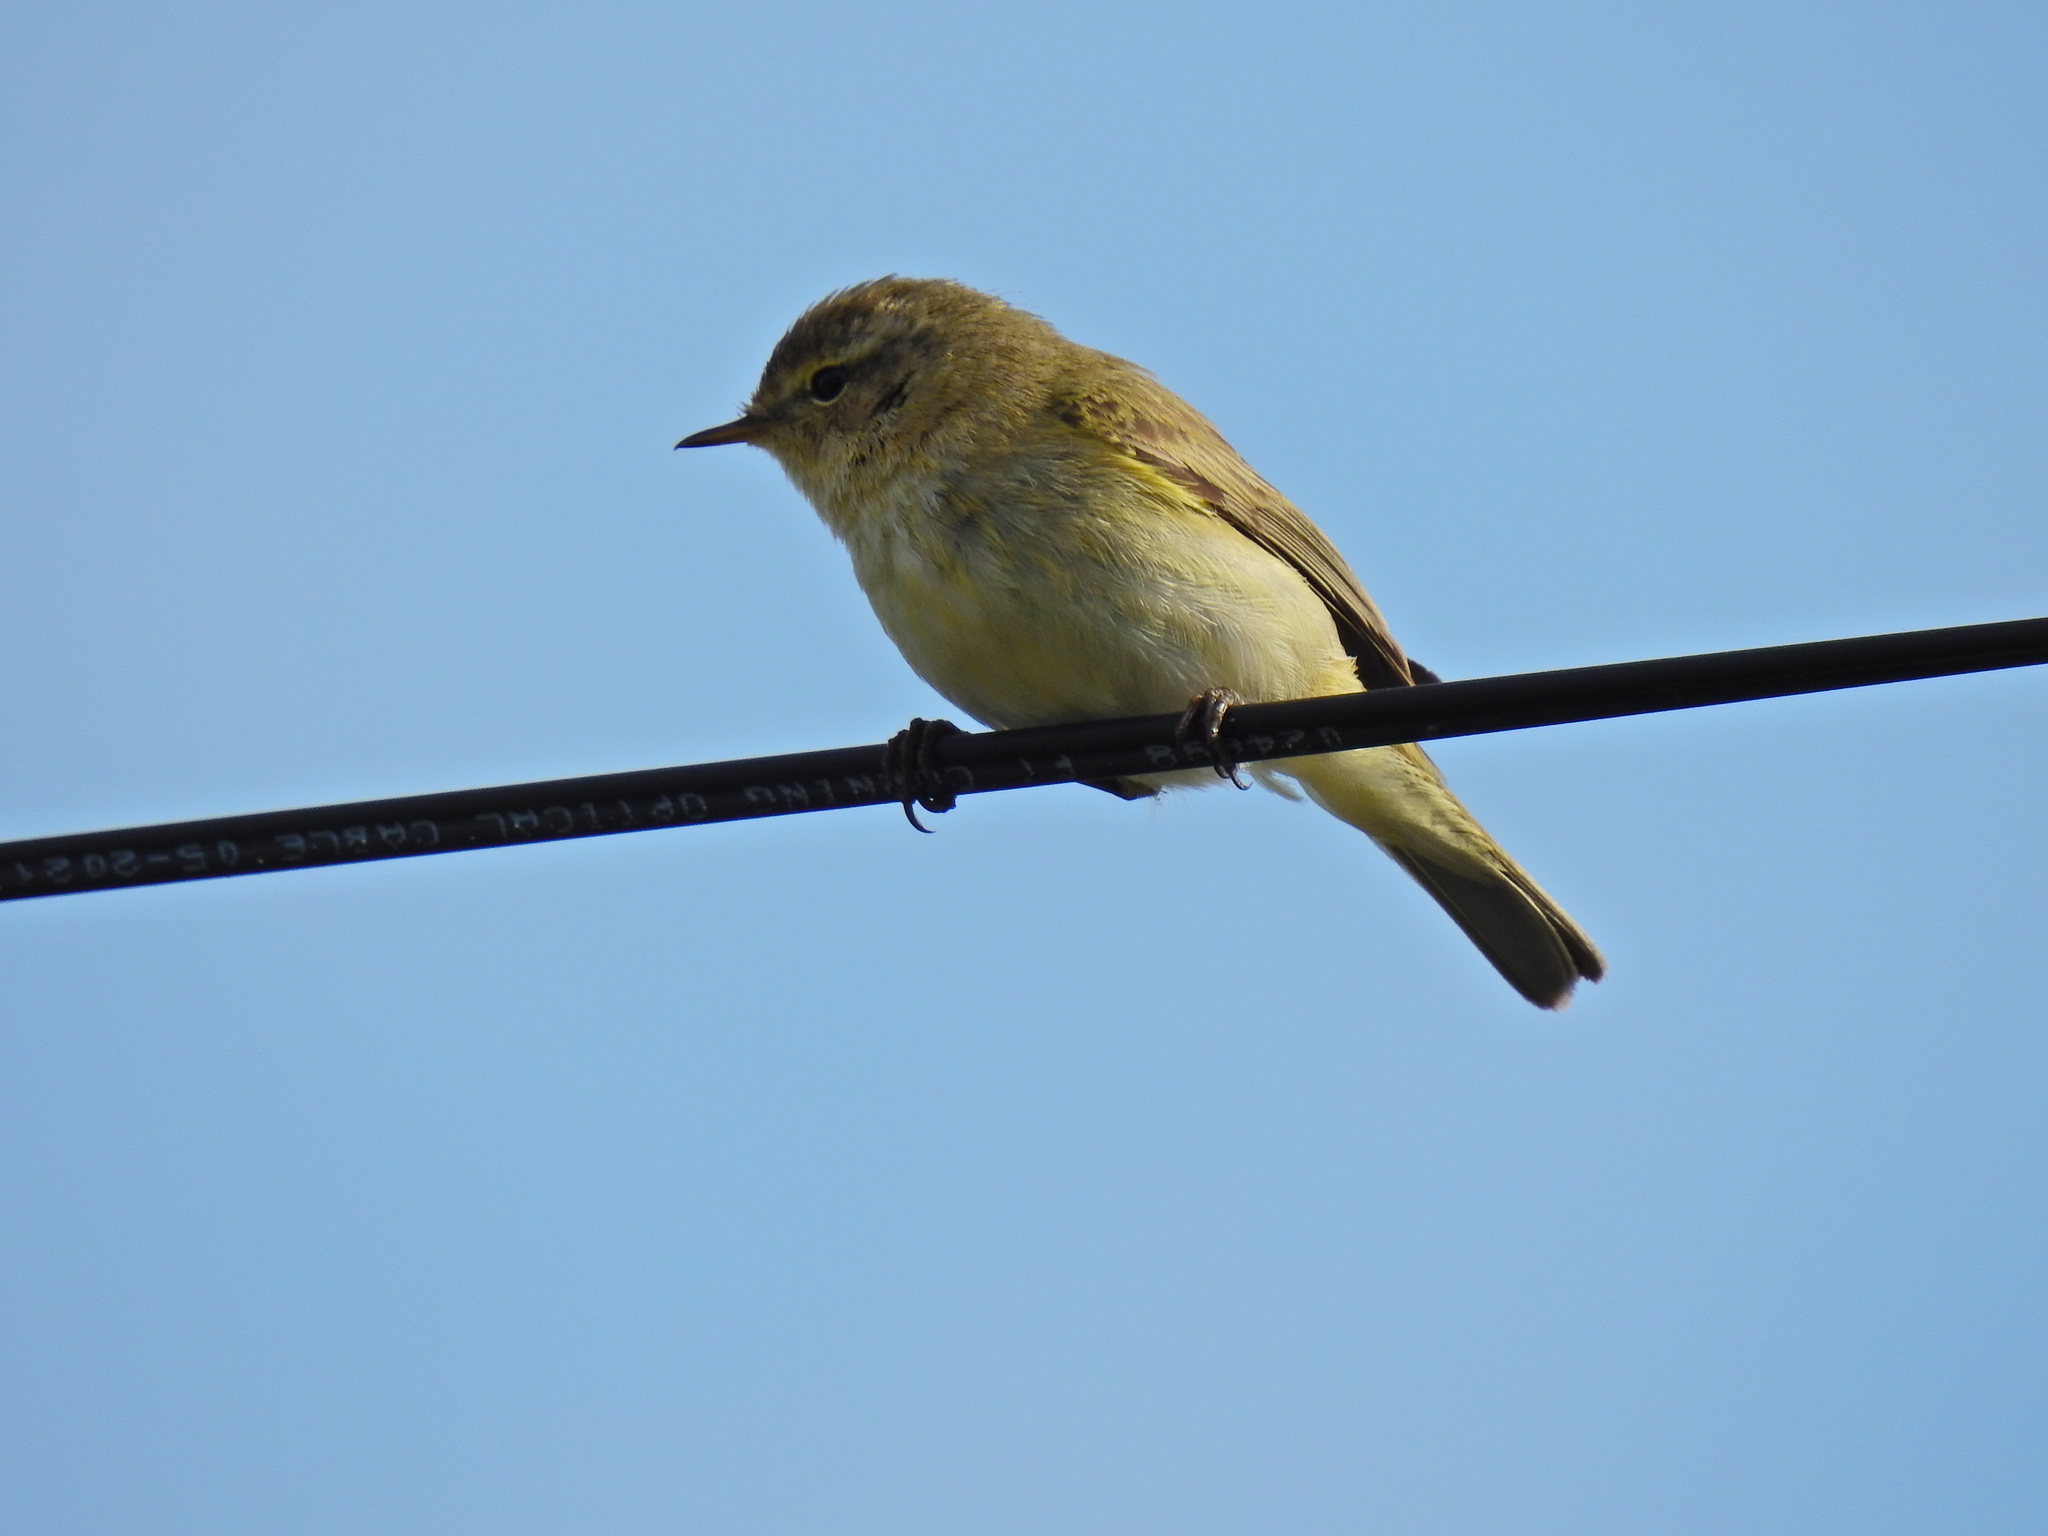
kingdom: Animalia
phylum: Chordata
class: Aves
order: Passeriformes
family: Phylloscopidae
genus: Phylloscopus
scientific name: Phylloscopus collybita
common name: Common chiffchaff
